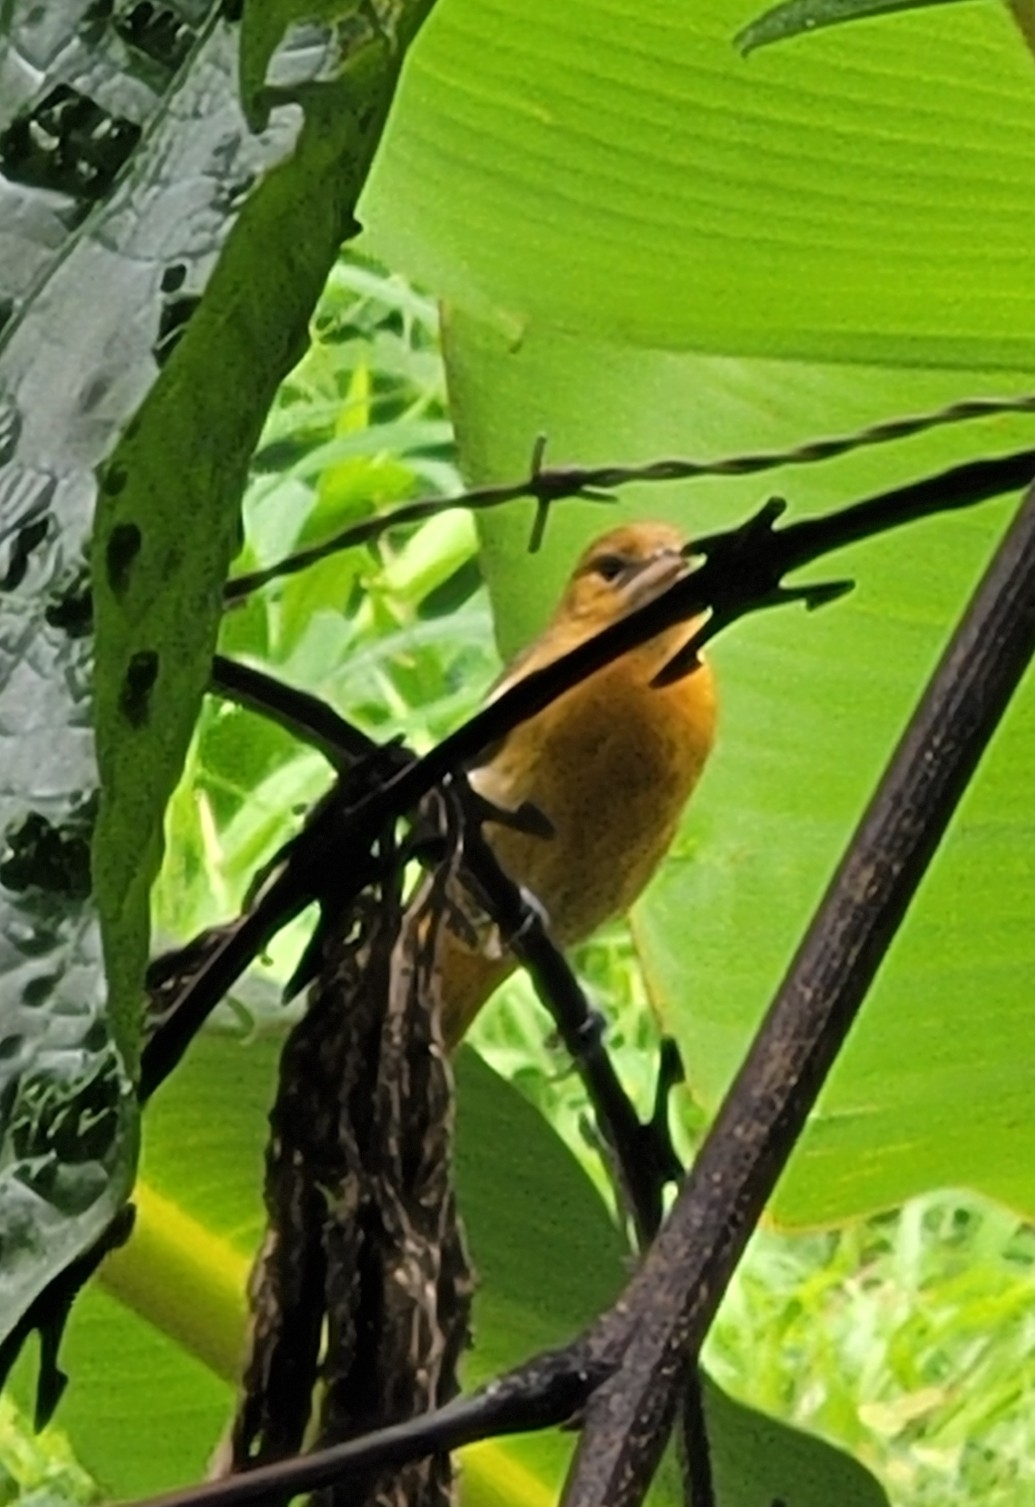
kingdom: Animalia
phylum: Chordata
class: Aves
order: Passeriformes
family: Icteridae
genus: Icterus
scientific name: Icterus galbula
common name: Baltimore oriole
